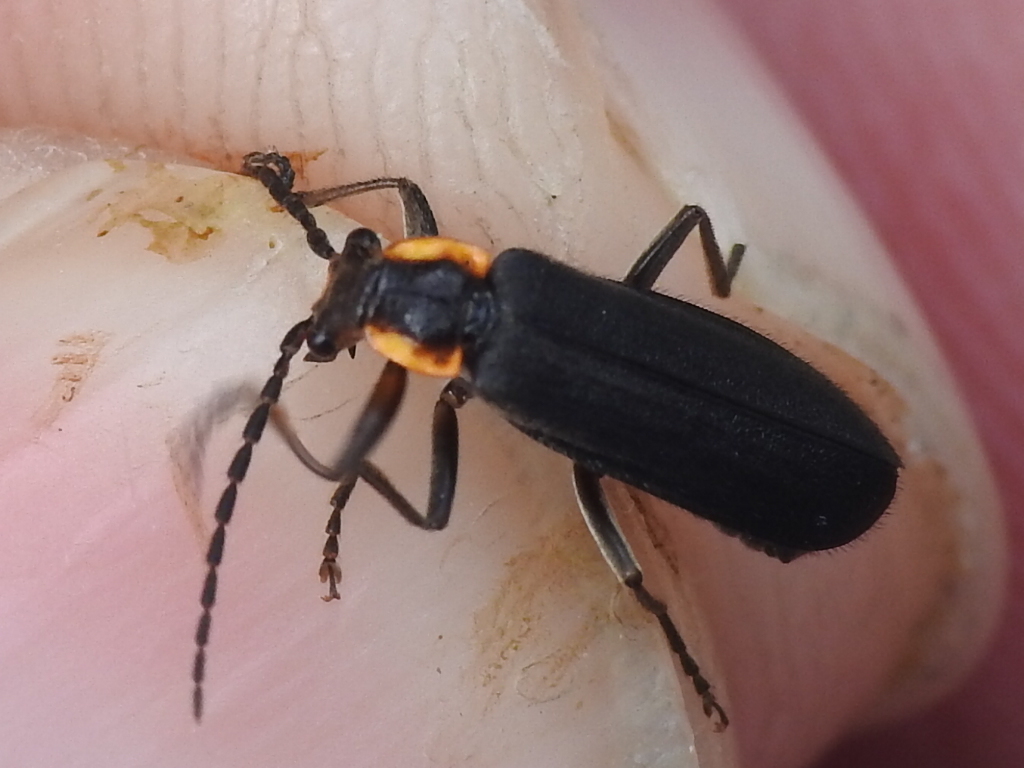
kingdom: Animalia
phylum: Arthropoda
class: Insecta
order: Coleoptera
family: Cantharidae
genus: Podabrus
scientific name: Podabrus rugosulus
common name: Wrinkled soldier beetle
